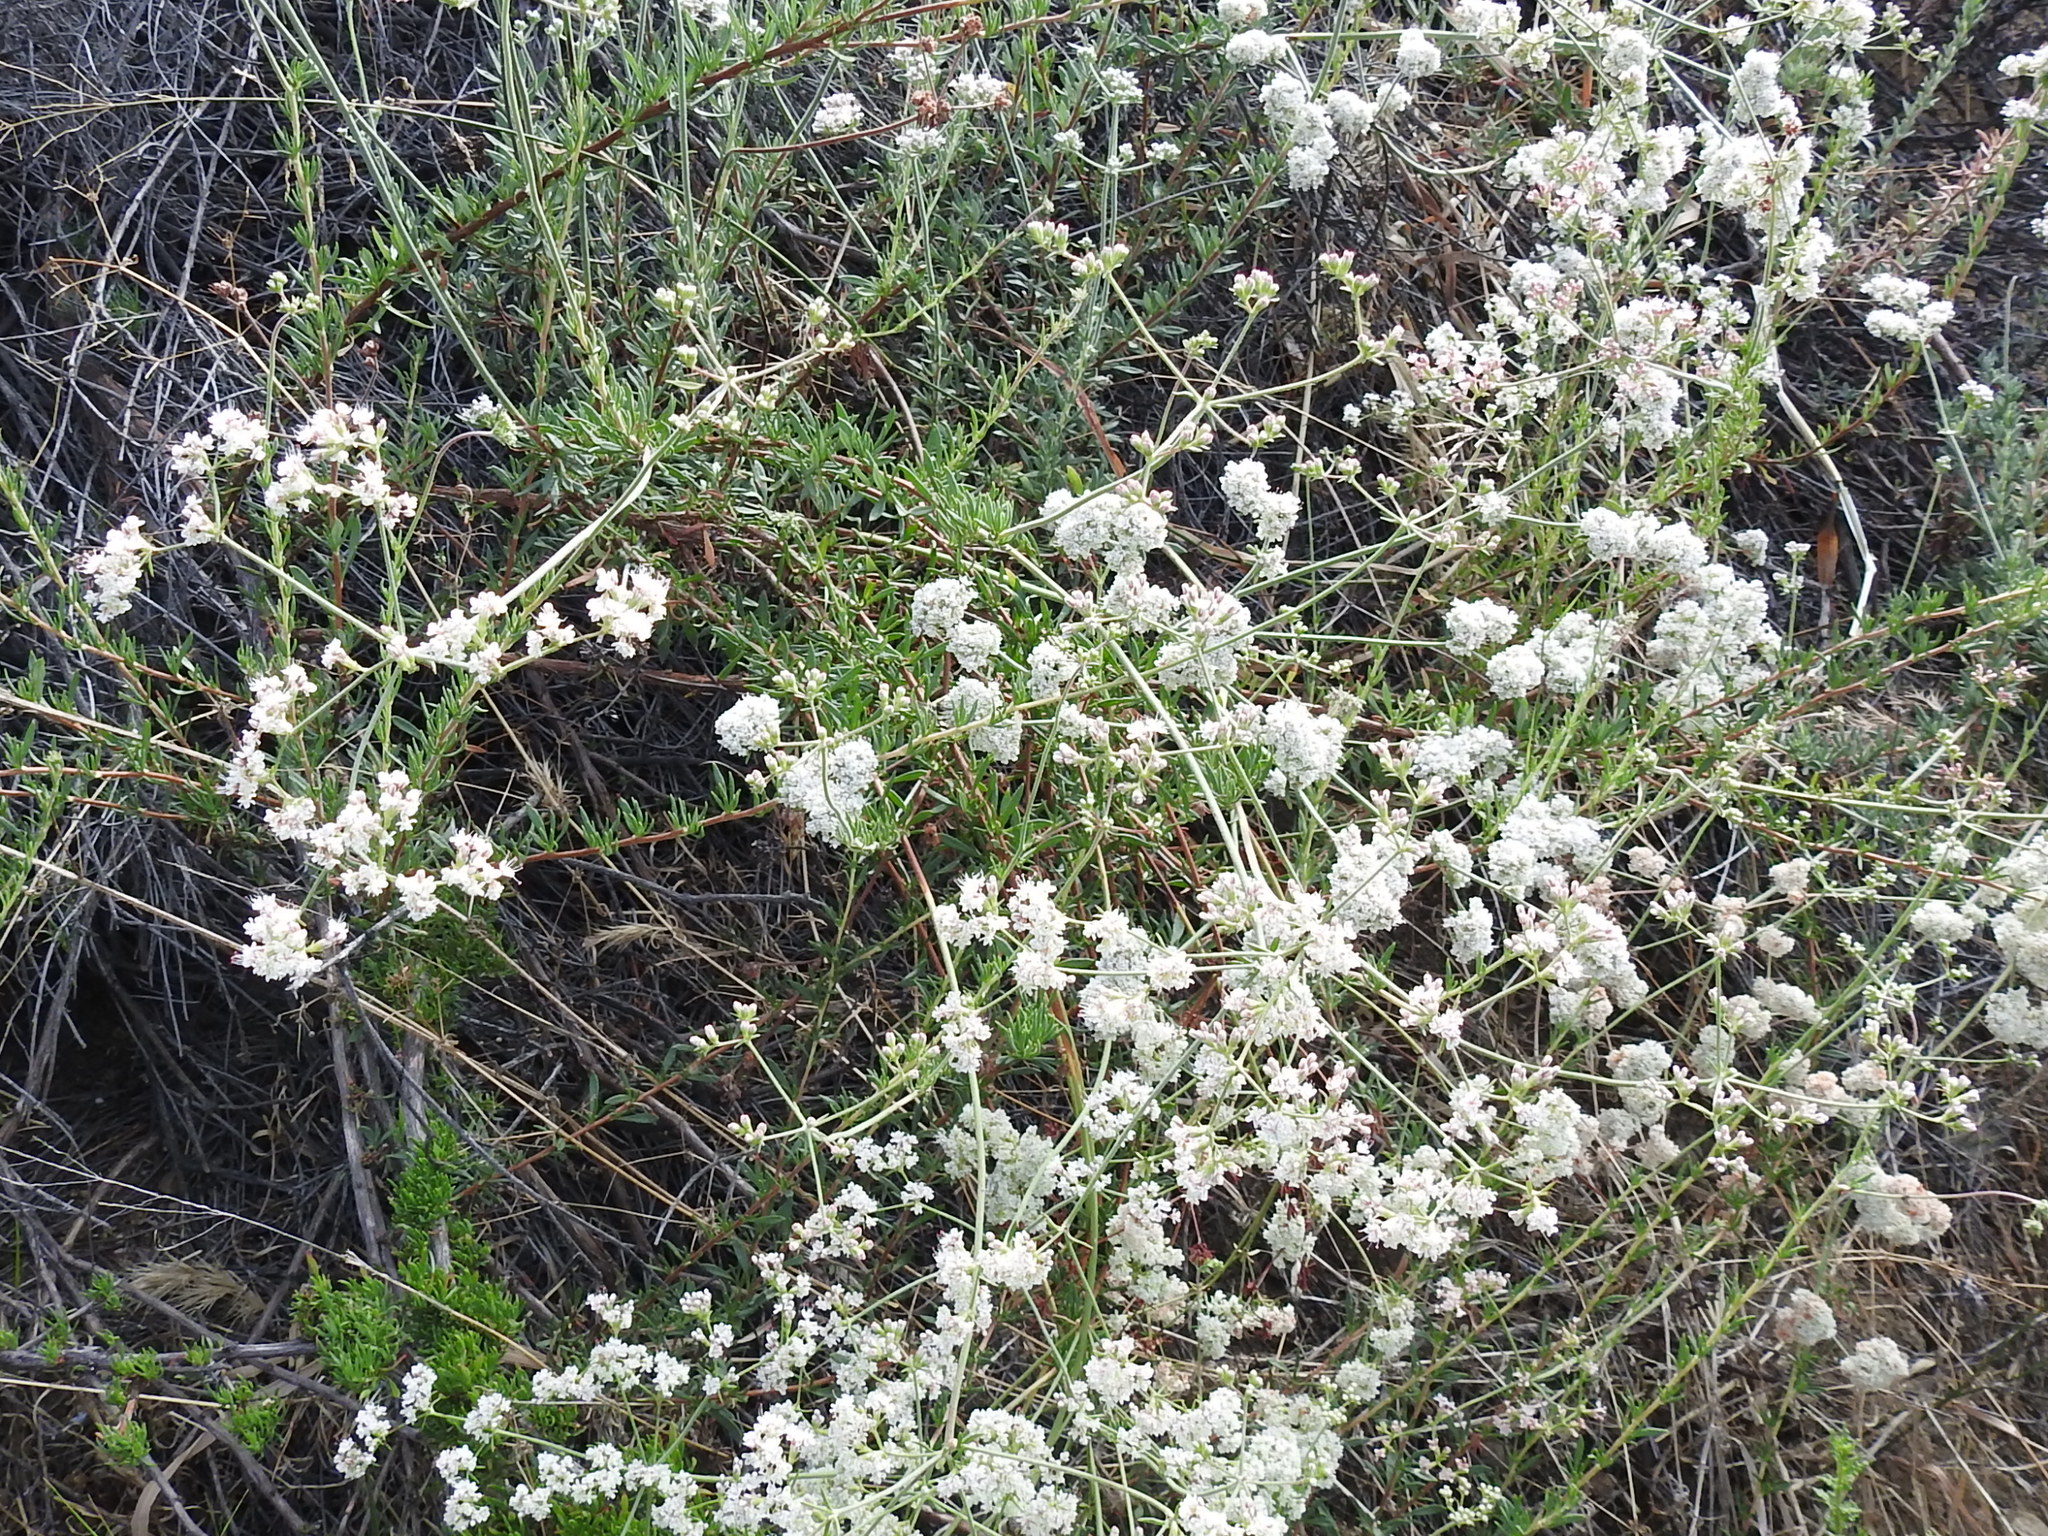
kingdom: Plantae
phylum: Tracheophyta
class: Magnoliopsida
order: Caryophyllales
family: Polygonaceae
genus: Eriogonum
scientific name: Eriogonum fasciculatum
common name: California wild buckwheat
